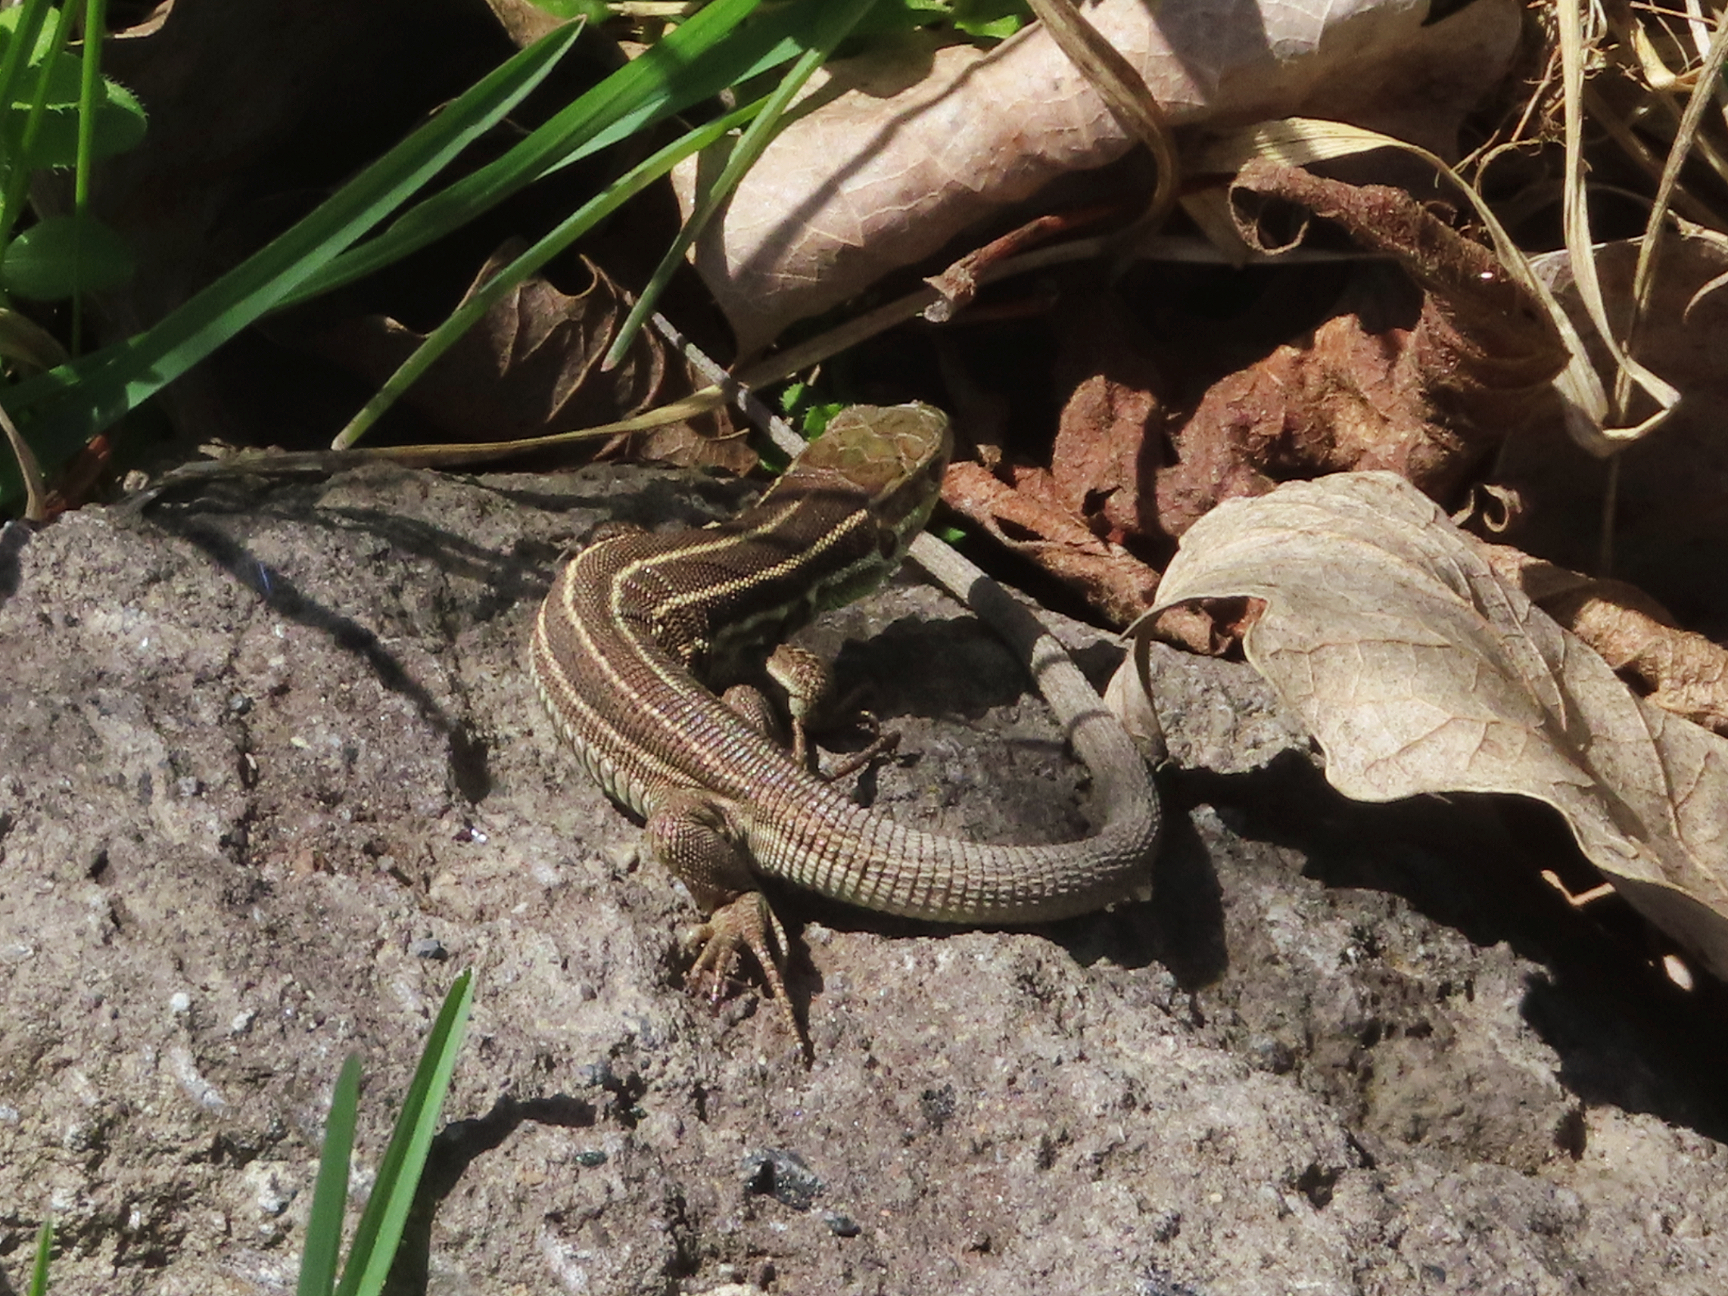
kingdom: Animalia
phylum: Chordata
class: Squamata
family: Lacertidae
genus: Lacerta
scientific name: Lacerta strigata
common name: Caspian green lizard
